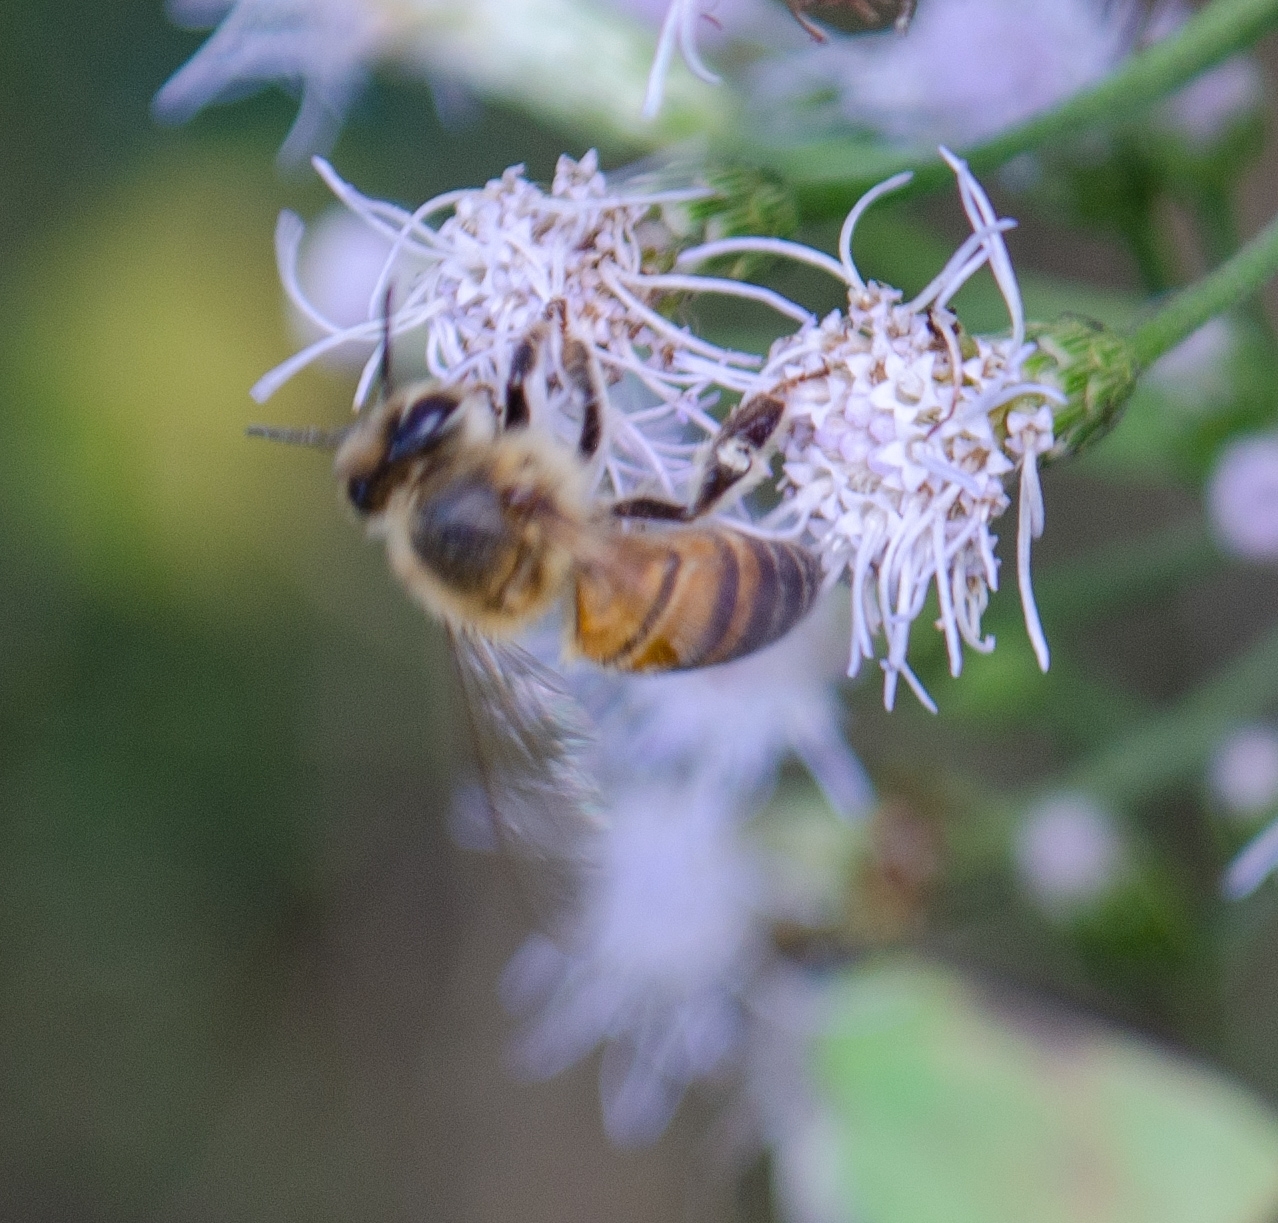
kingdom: Animalia
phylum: Arthropoda
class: Insecta
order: Hymenoptera
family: Apidae
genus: Apis
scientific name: Apis mellifera
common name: Honey bee
